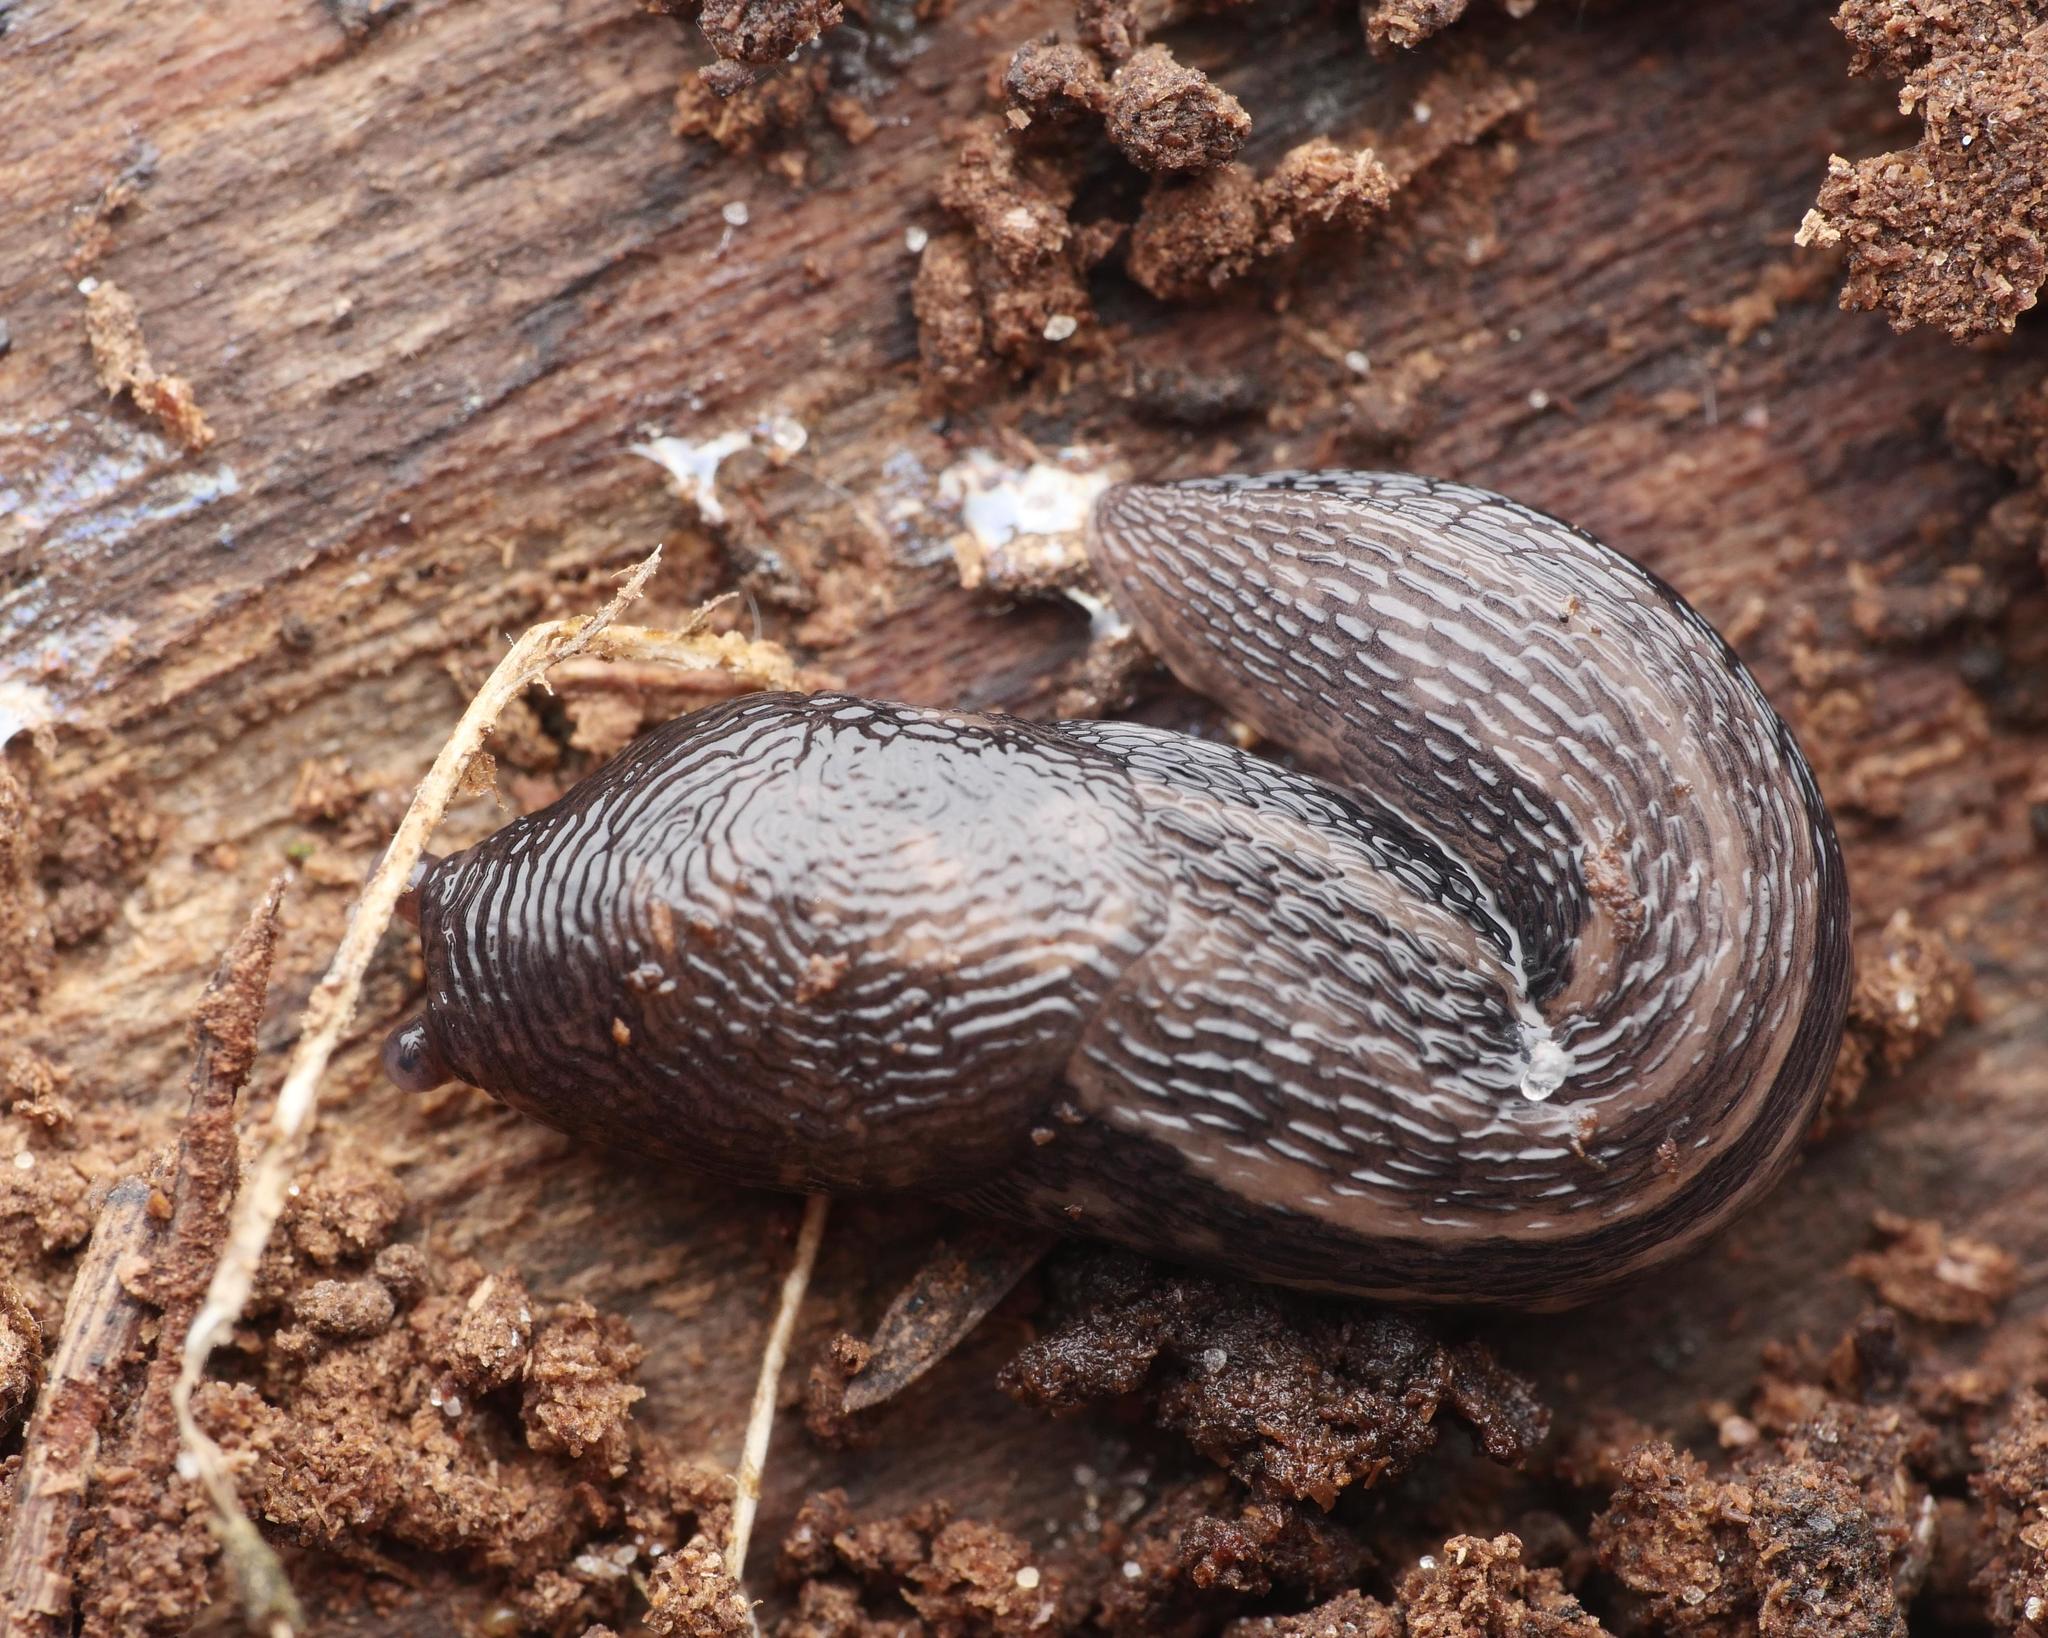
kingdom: Animalia
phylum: Mollusca
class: Gastropoda
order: Stylommatophora
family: Limacidae
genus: Limax
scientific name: Limax maximus
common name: Great grey slug
